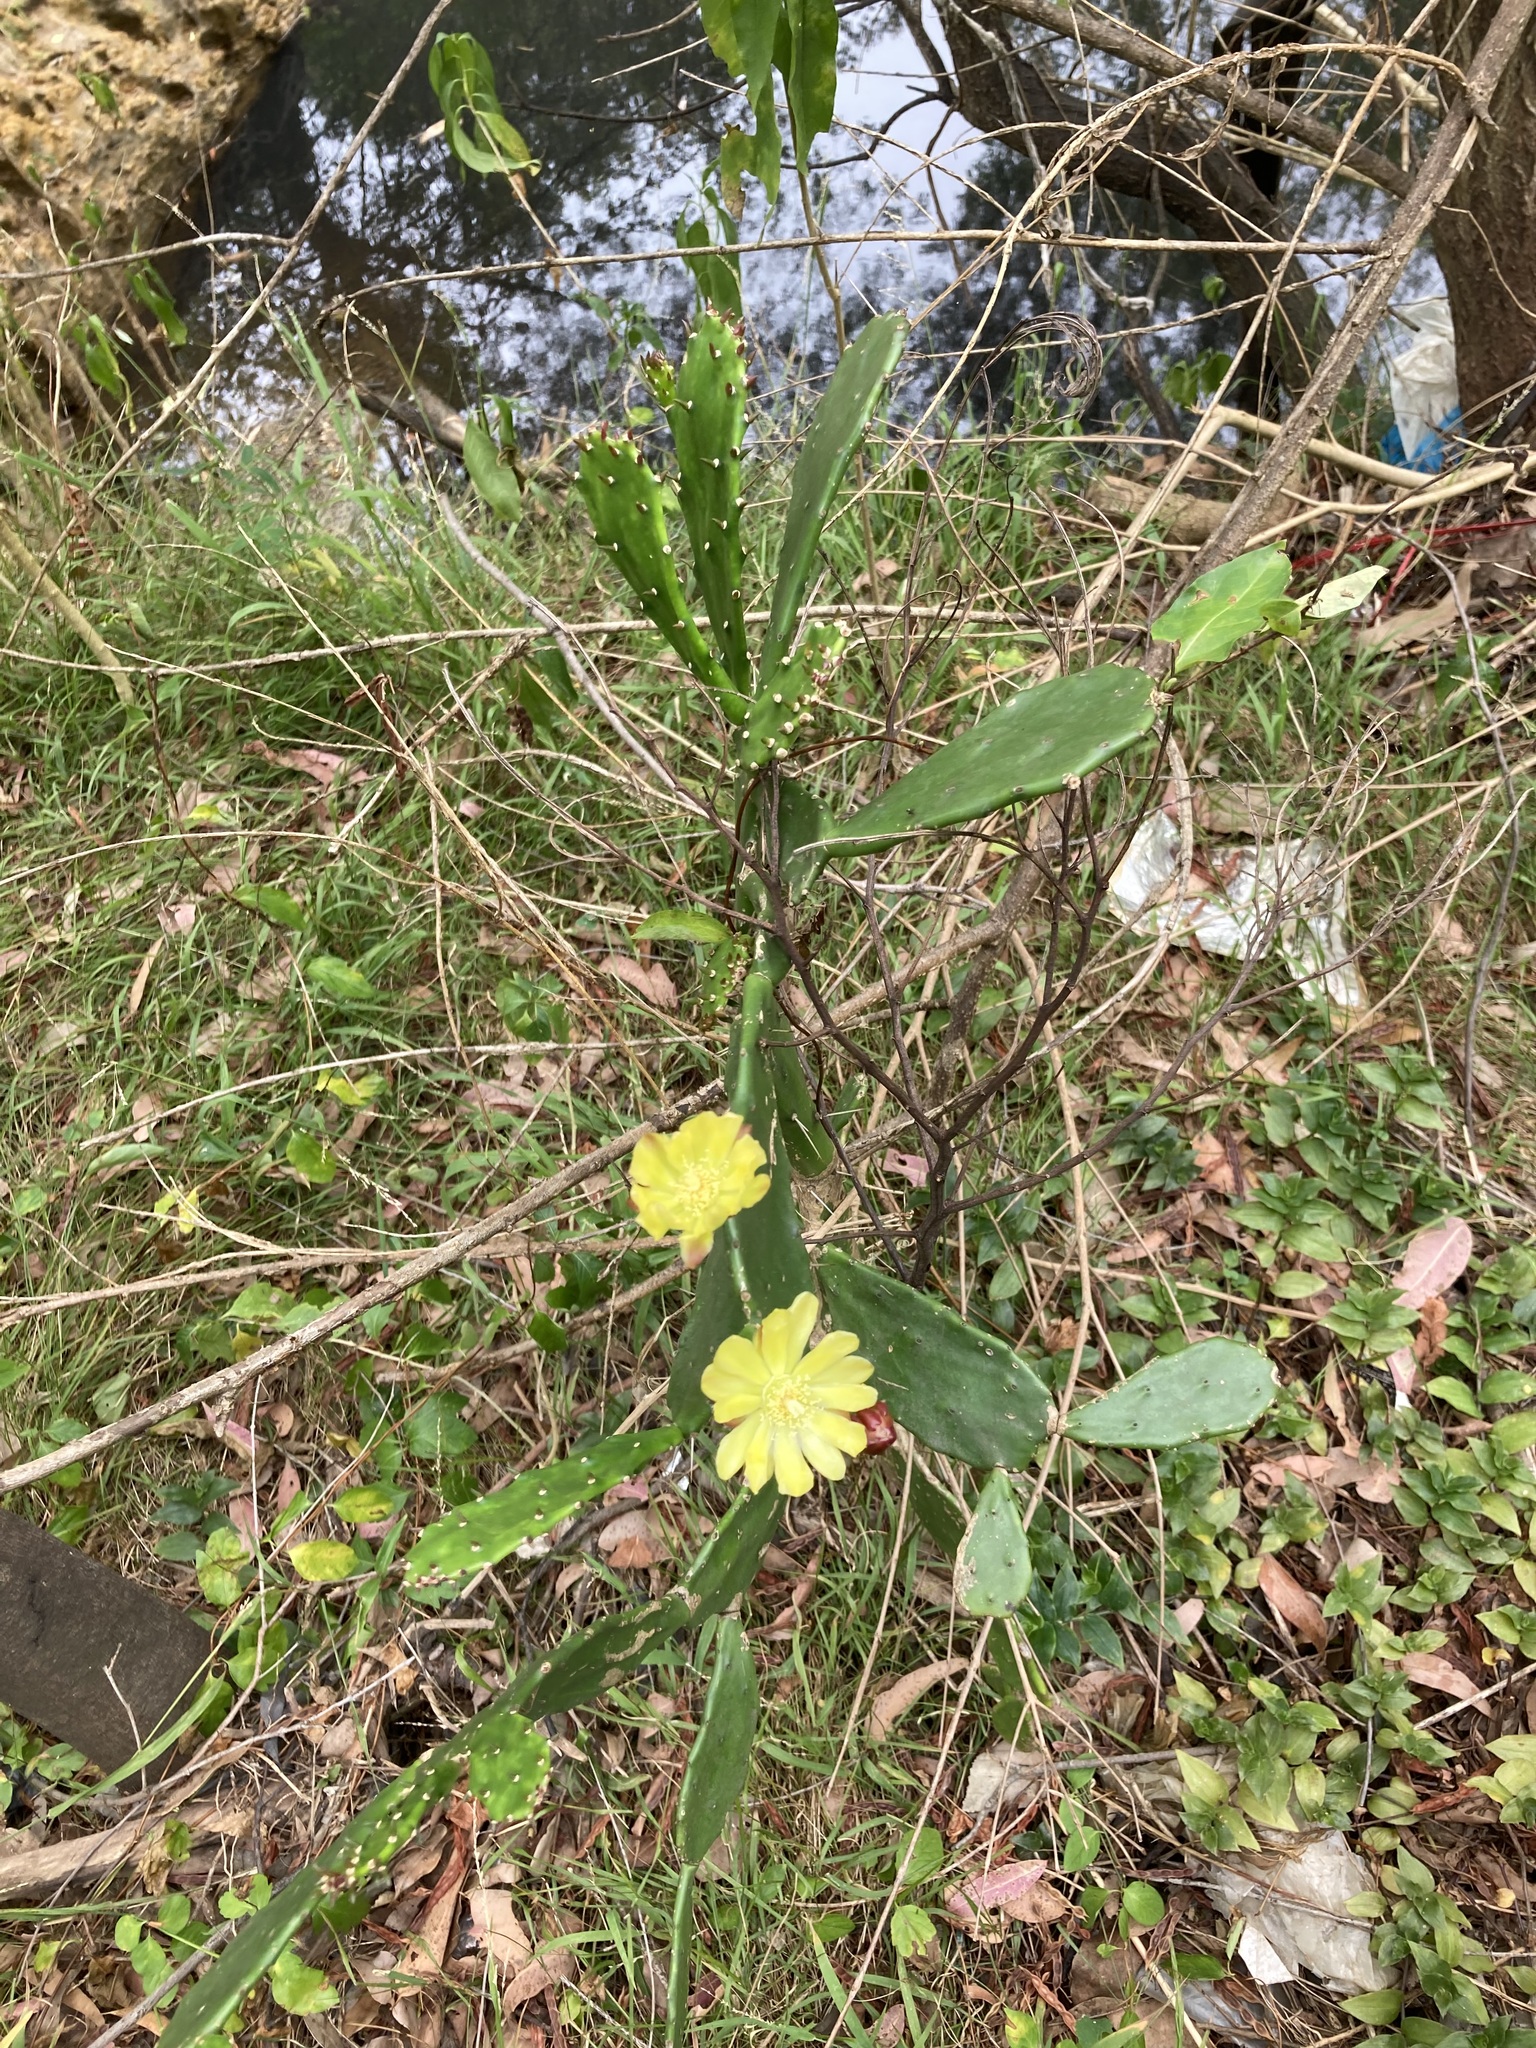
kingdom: Plantae
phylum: Tracheophyta
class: Magnoliopsida
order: Caryophyllales
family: Cactaceae
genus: Opuntia
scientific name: Opuntia monacantha
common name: Common pricklypear
